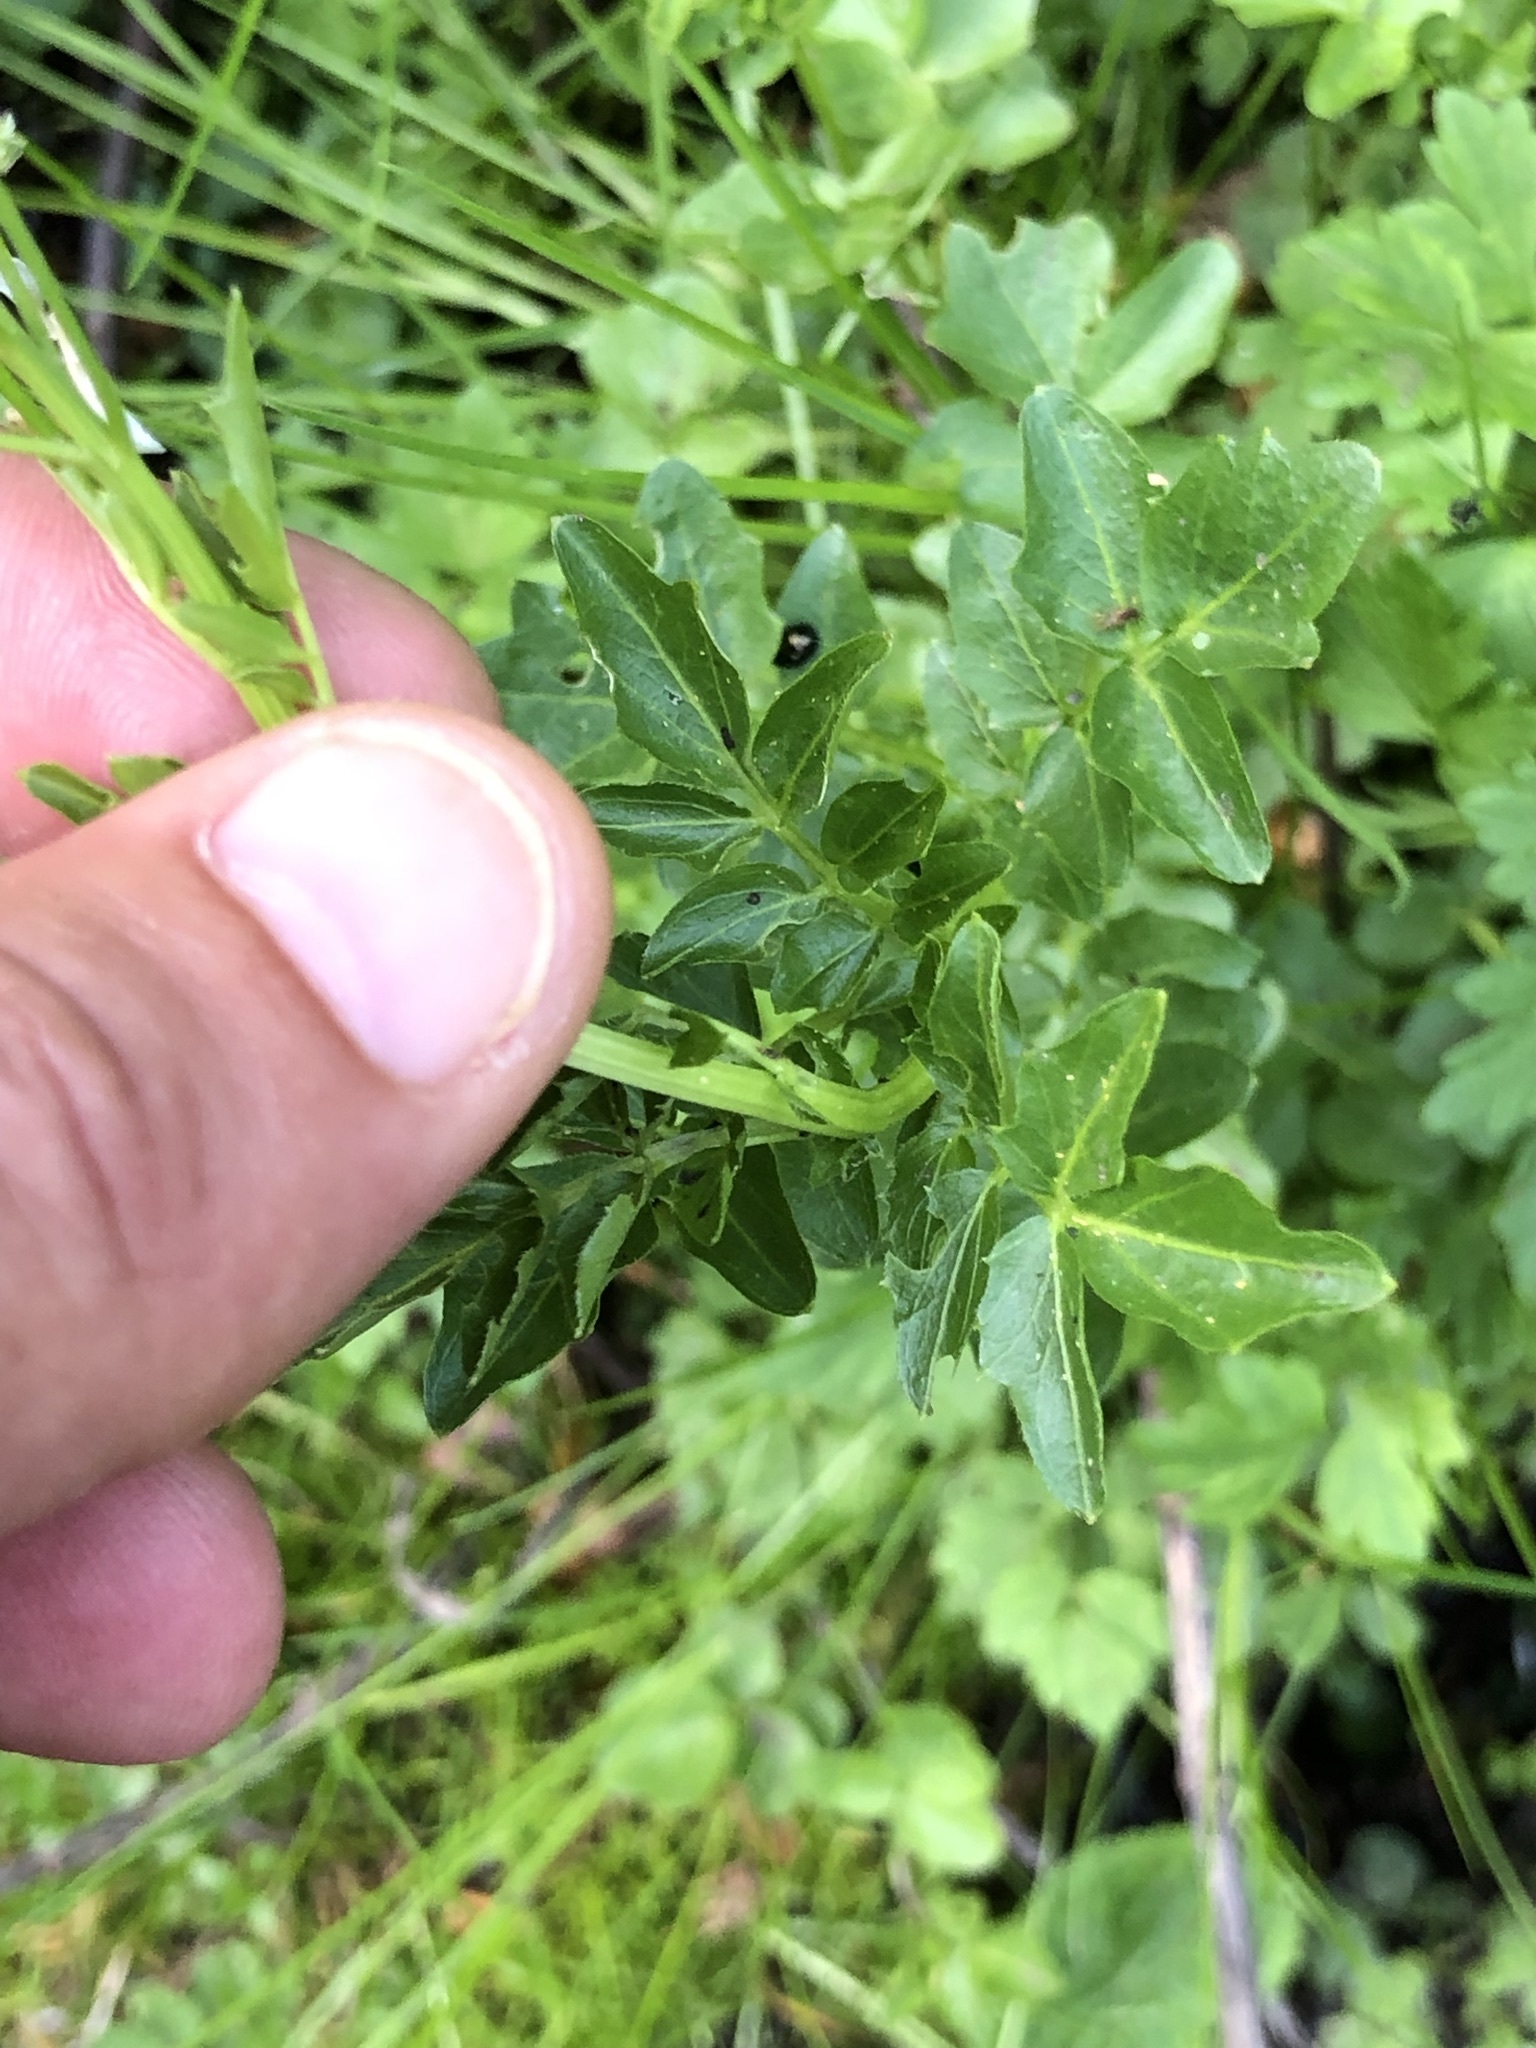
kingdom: Plantae
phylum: Tracheophyta
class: Magnoliopsida
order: Brassicales
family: Brassicaceae
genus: Cardamine
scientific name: Cardamine amara
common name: Large bitter-cress
